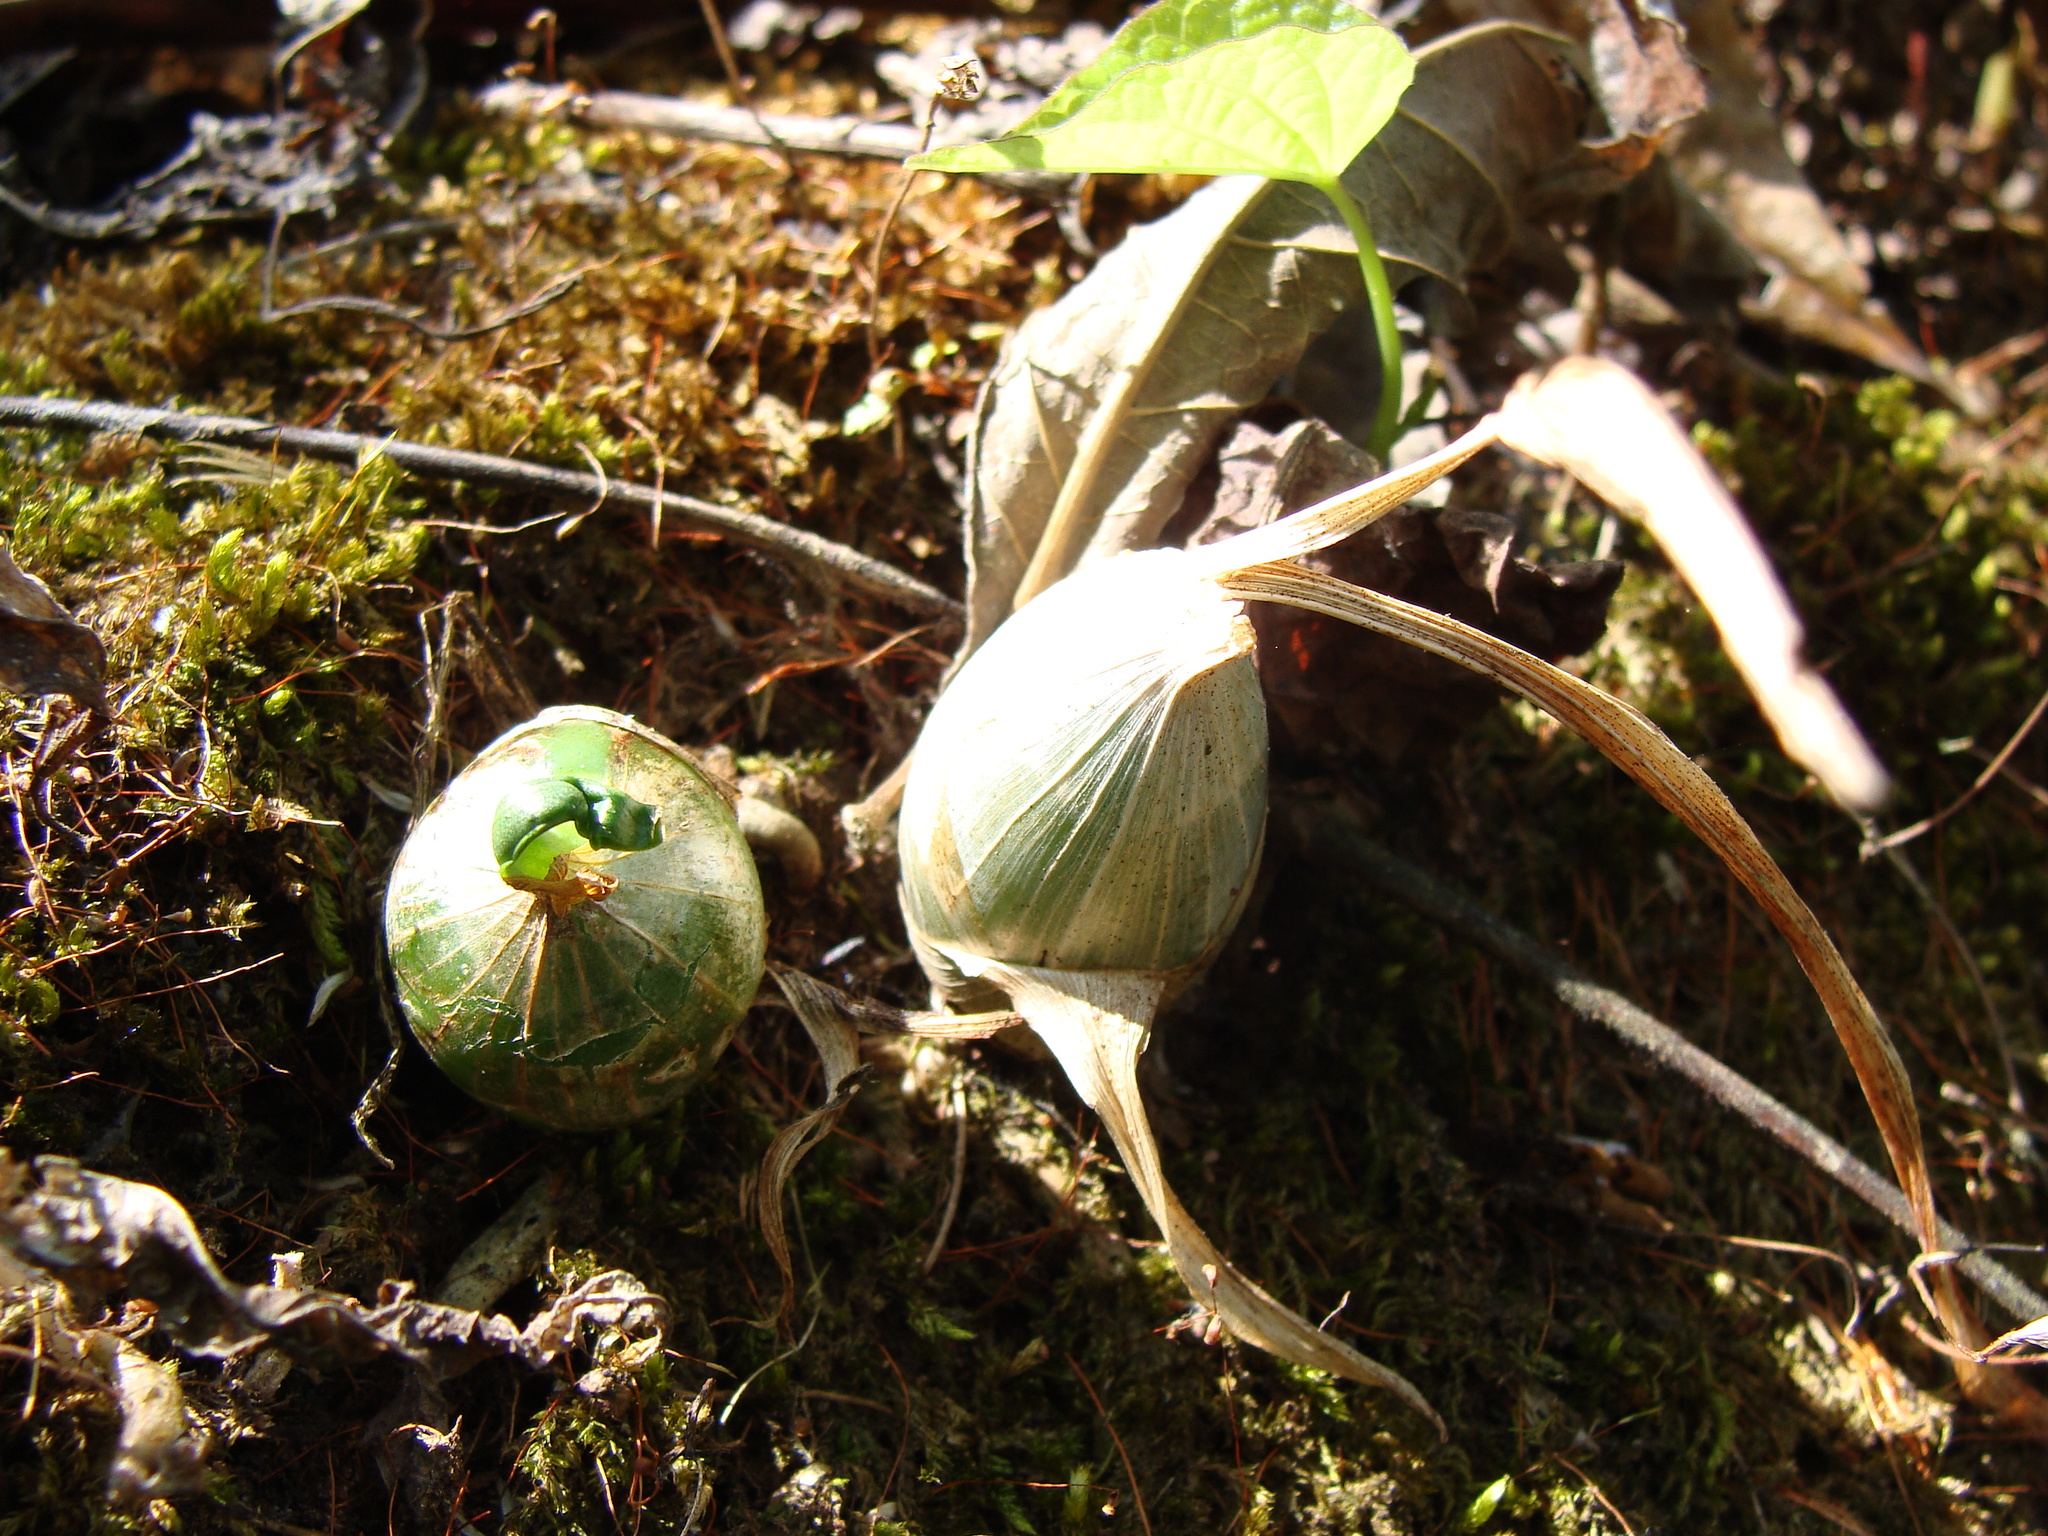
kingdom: Plantae
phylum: Tracheophyta
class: Liliopsida
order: Asparagales
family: Orchidaceae
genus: Mormodes
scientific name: Mormodes lineata
